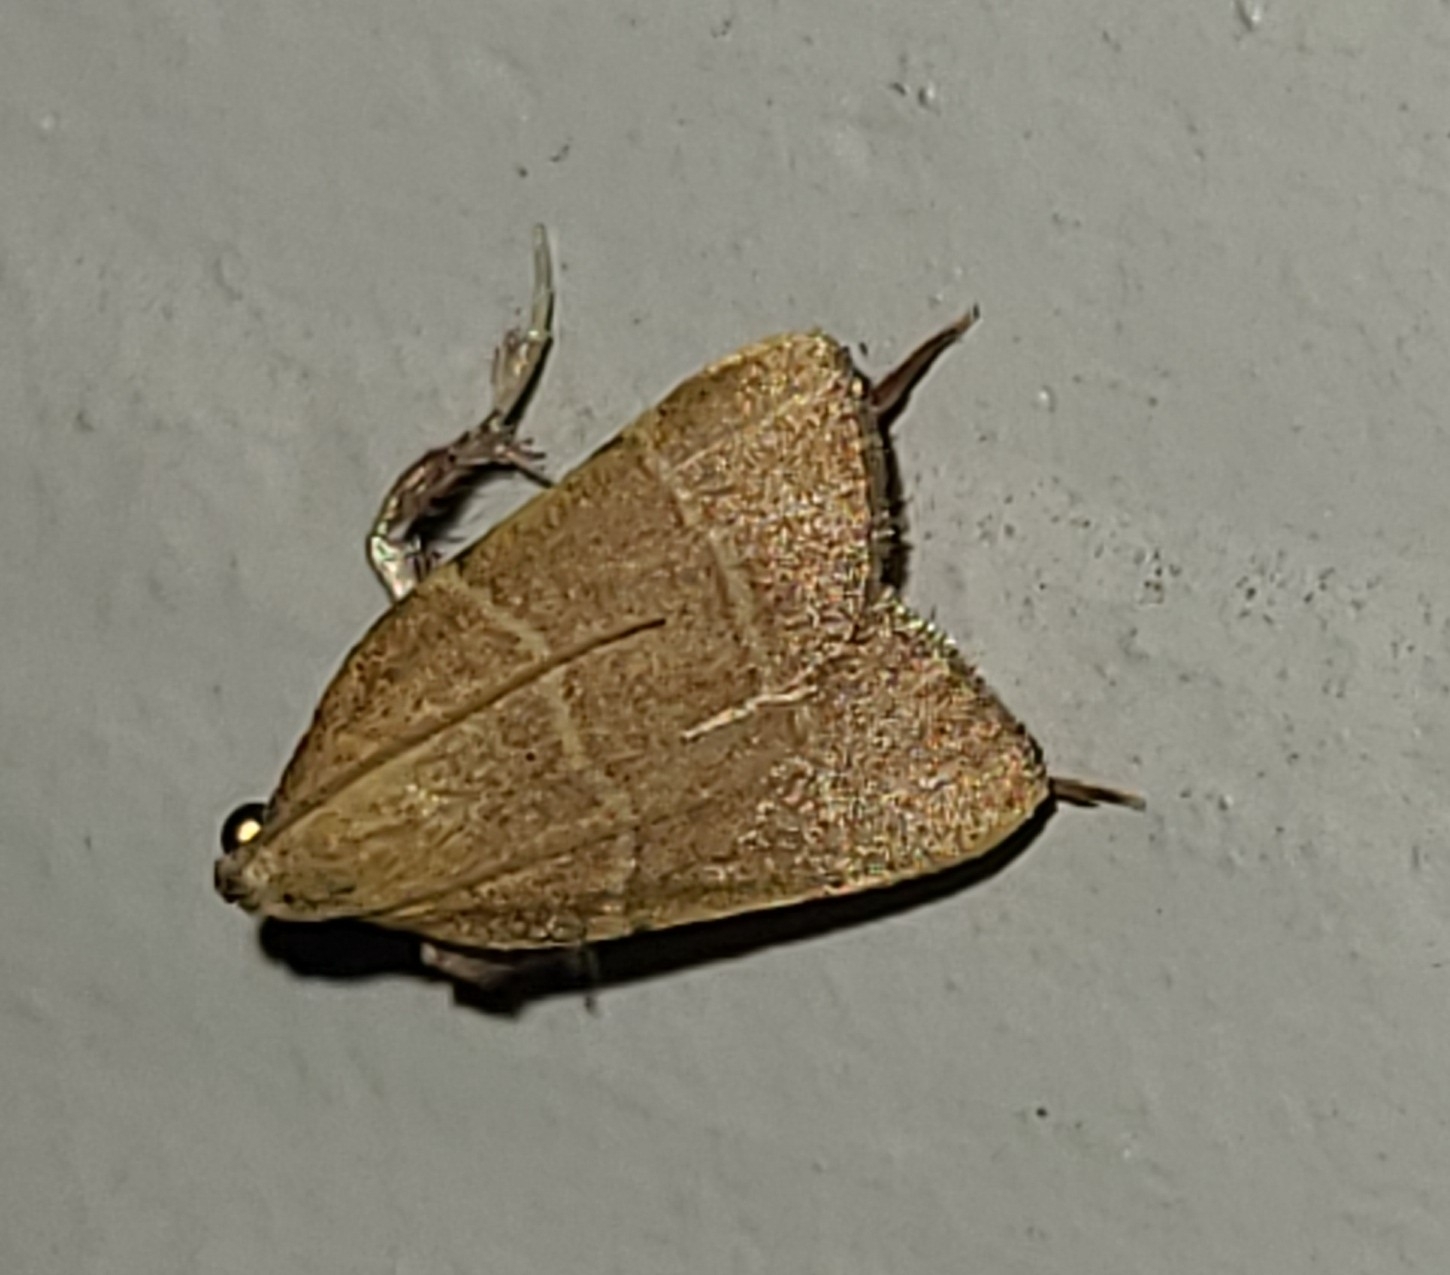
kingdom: Animalia
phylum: Arthropoda
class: Insecta
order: Lepidoptera
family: Pyralidae
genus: Parachma
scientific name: Parachma ochracealis
